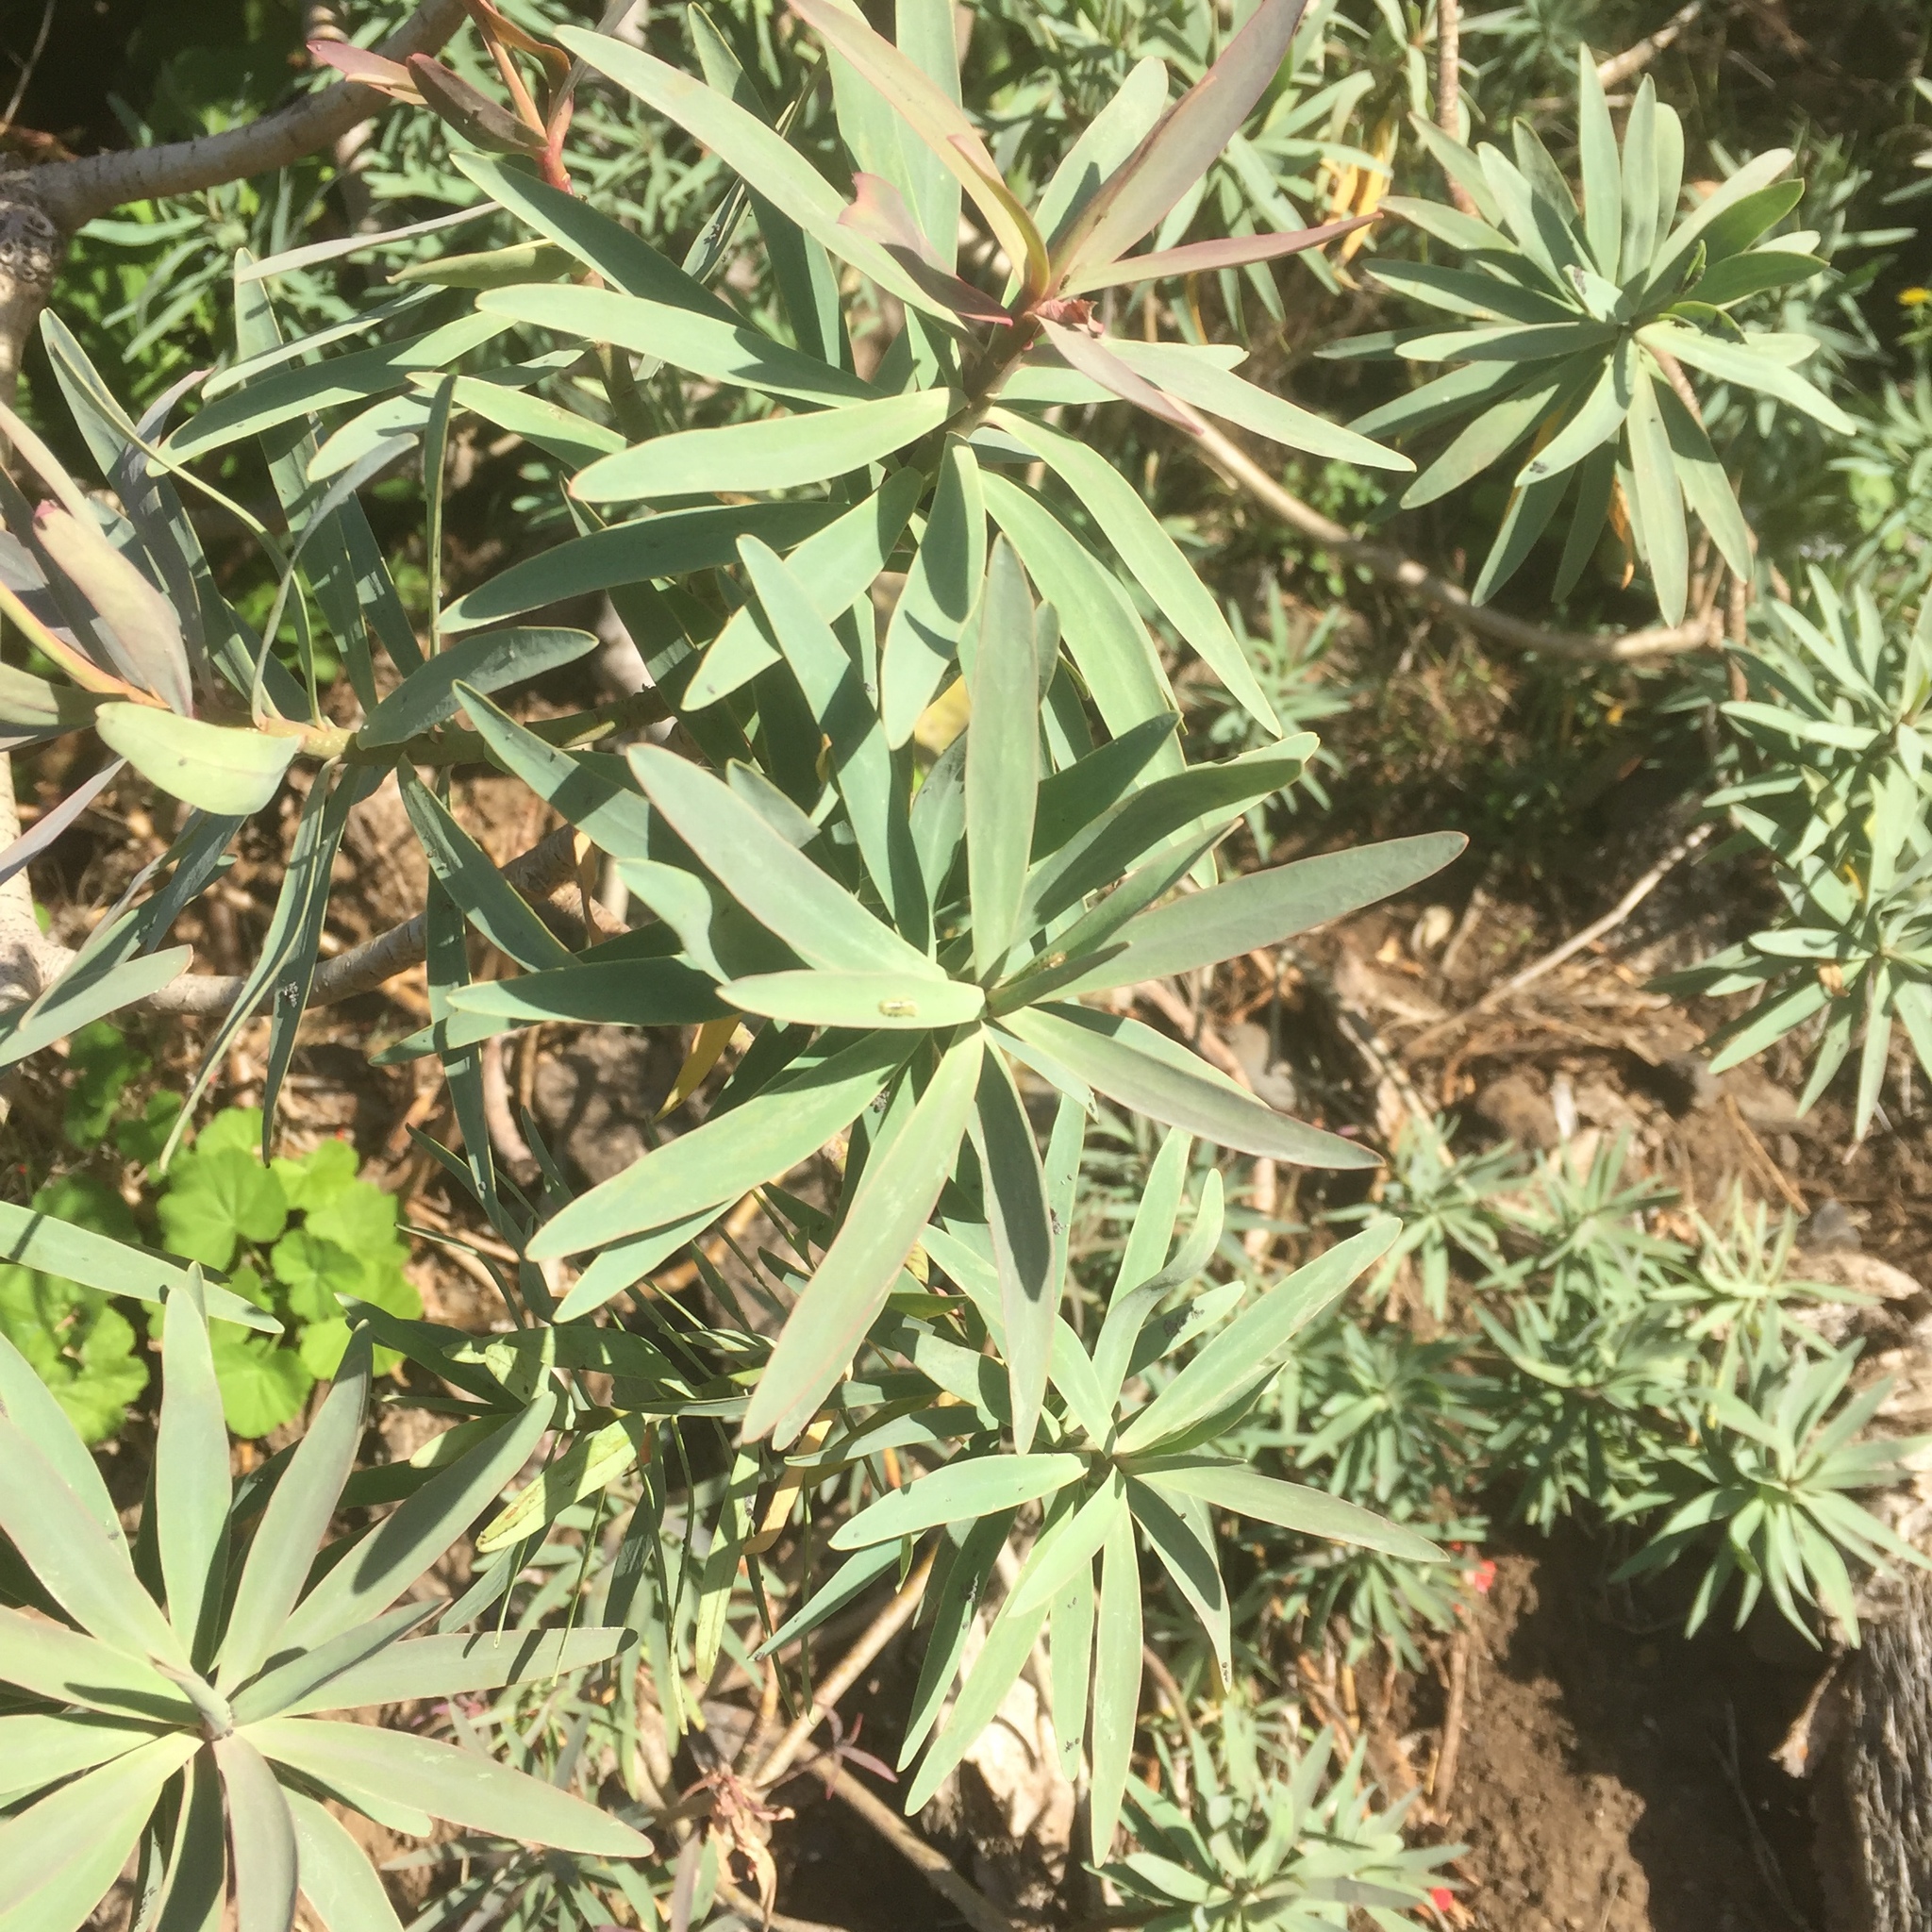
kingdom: Plantae
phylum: Tracheophyta
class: Magnoliopsida
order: Malpighiales
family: Euphorbiaceae
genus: Euphorbia
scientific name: Euphorbia piscatoria
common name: Fish-stunning spurge
